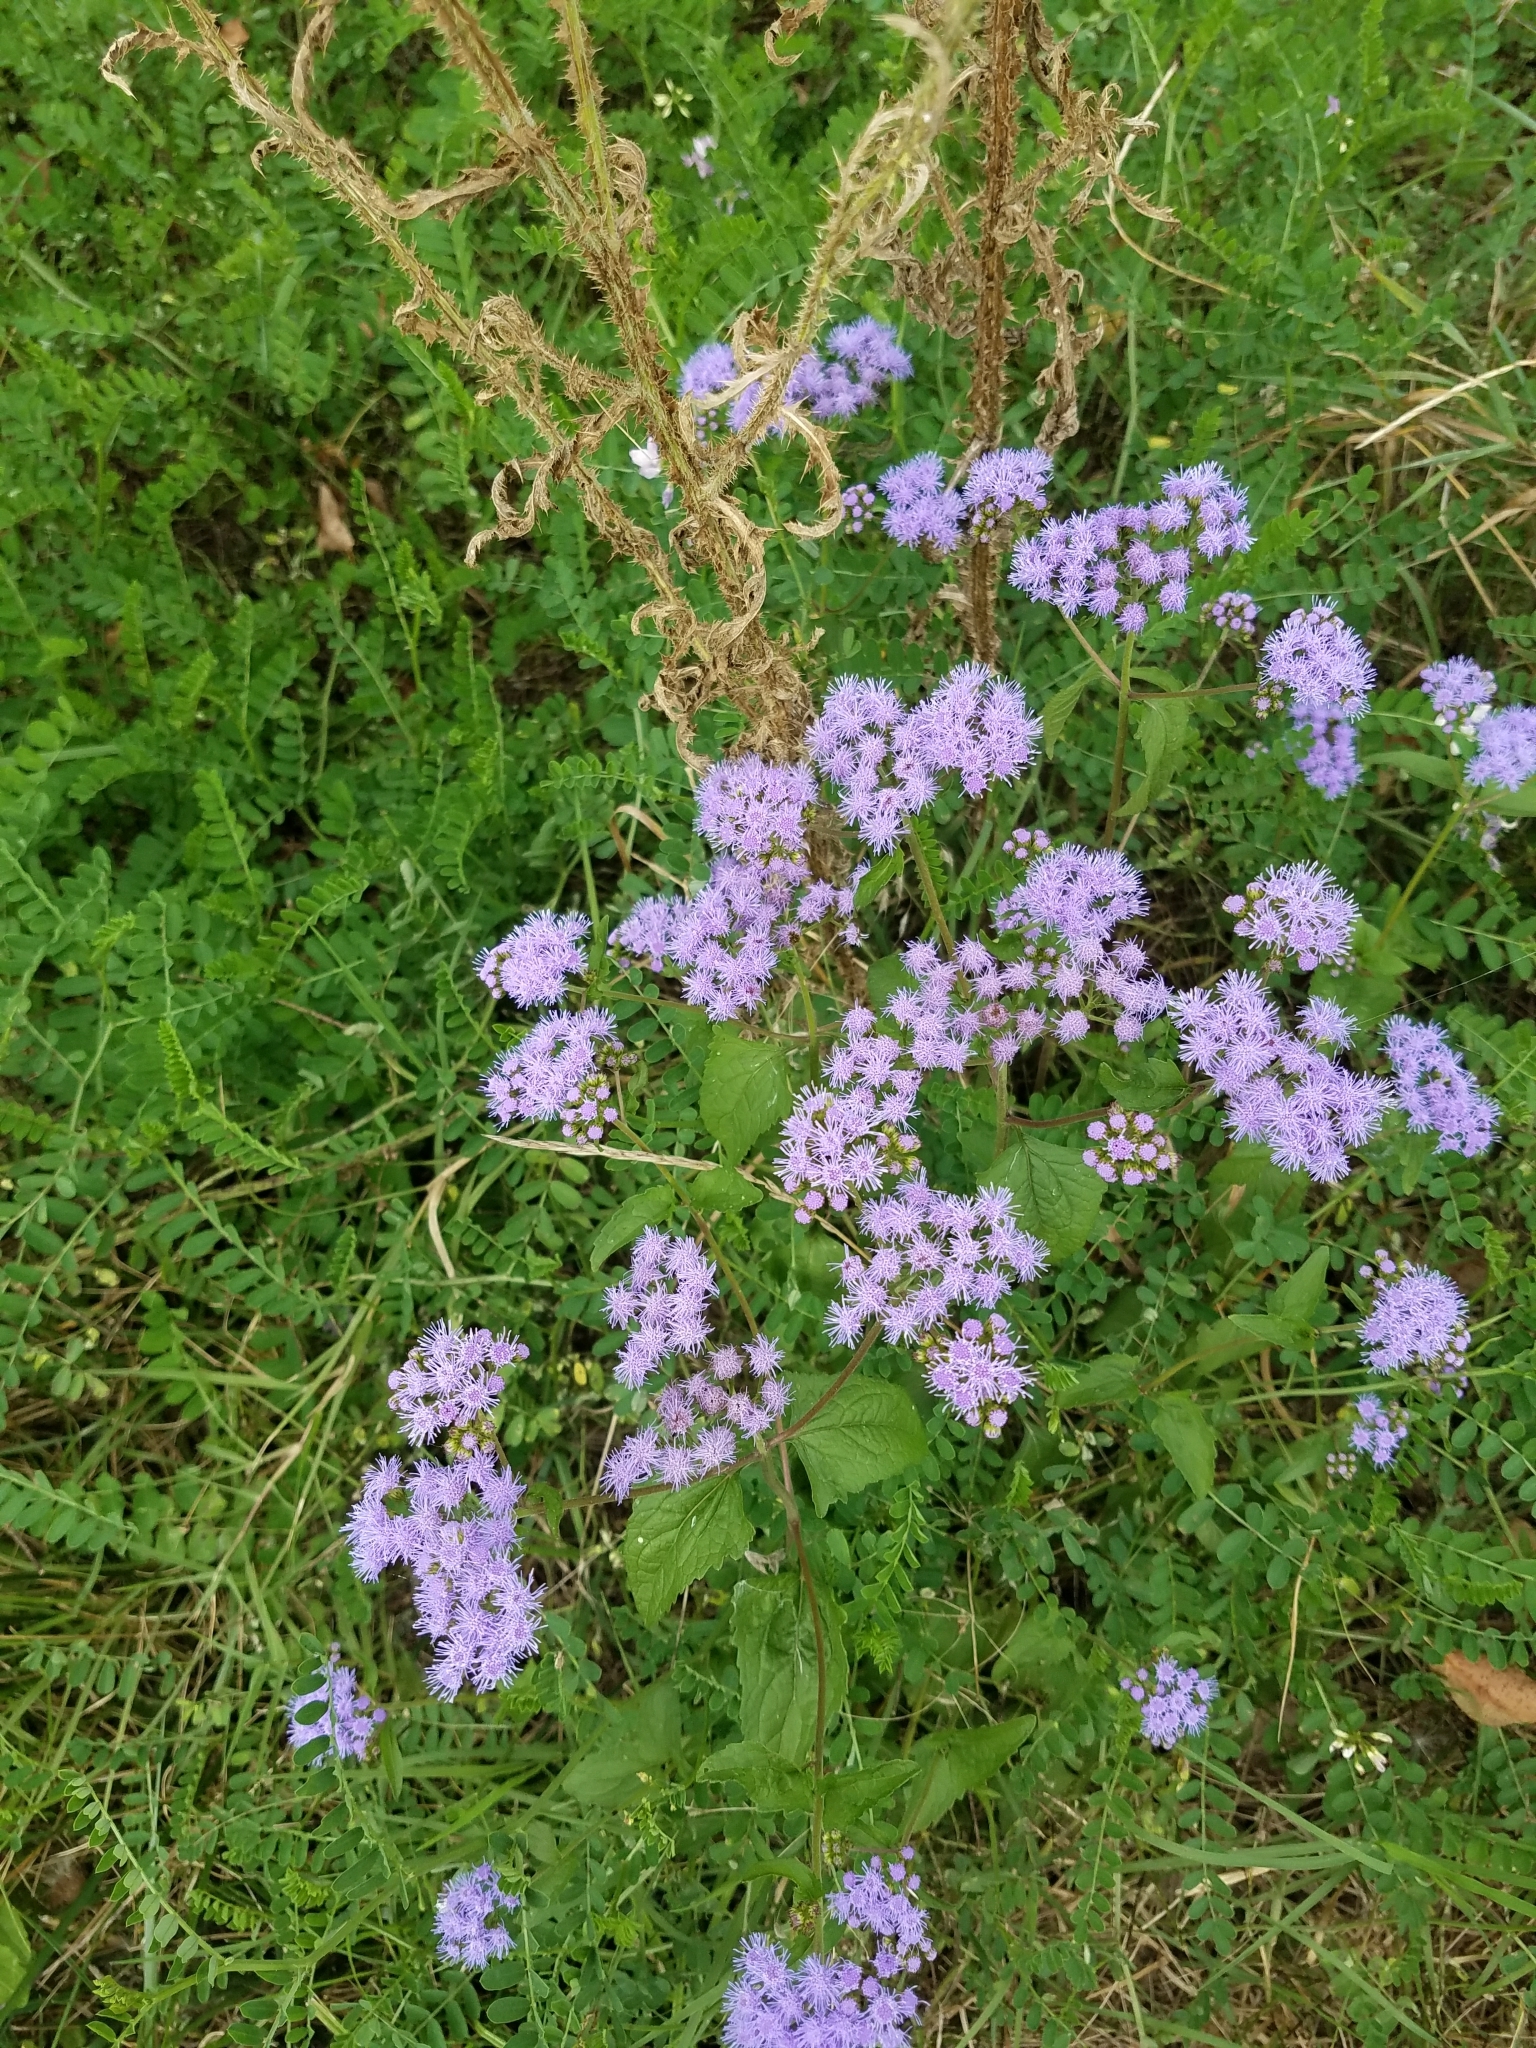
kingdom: Plantae
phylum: Tracheophyta
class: Magnoliopsida
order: Asterales
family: Asteraceae
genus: Conoclinium
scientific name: Conoclinium coelestinum
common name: Blue mistflower
